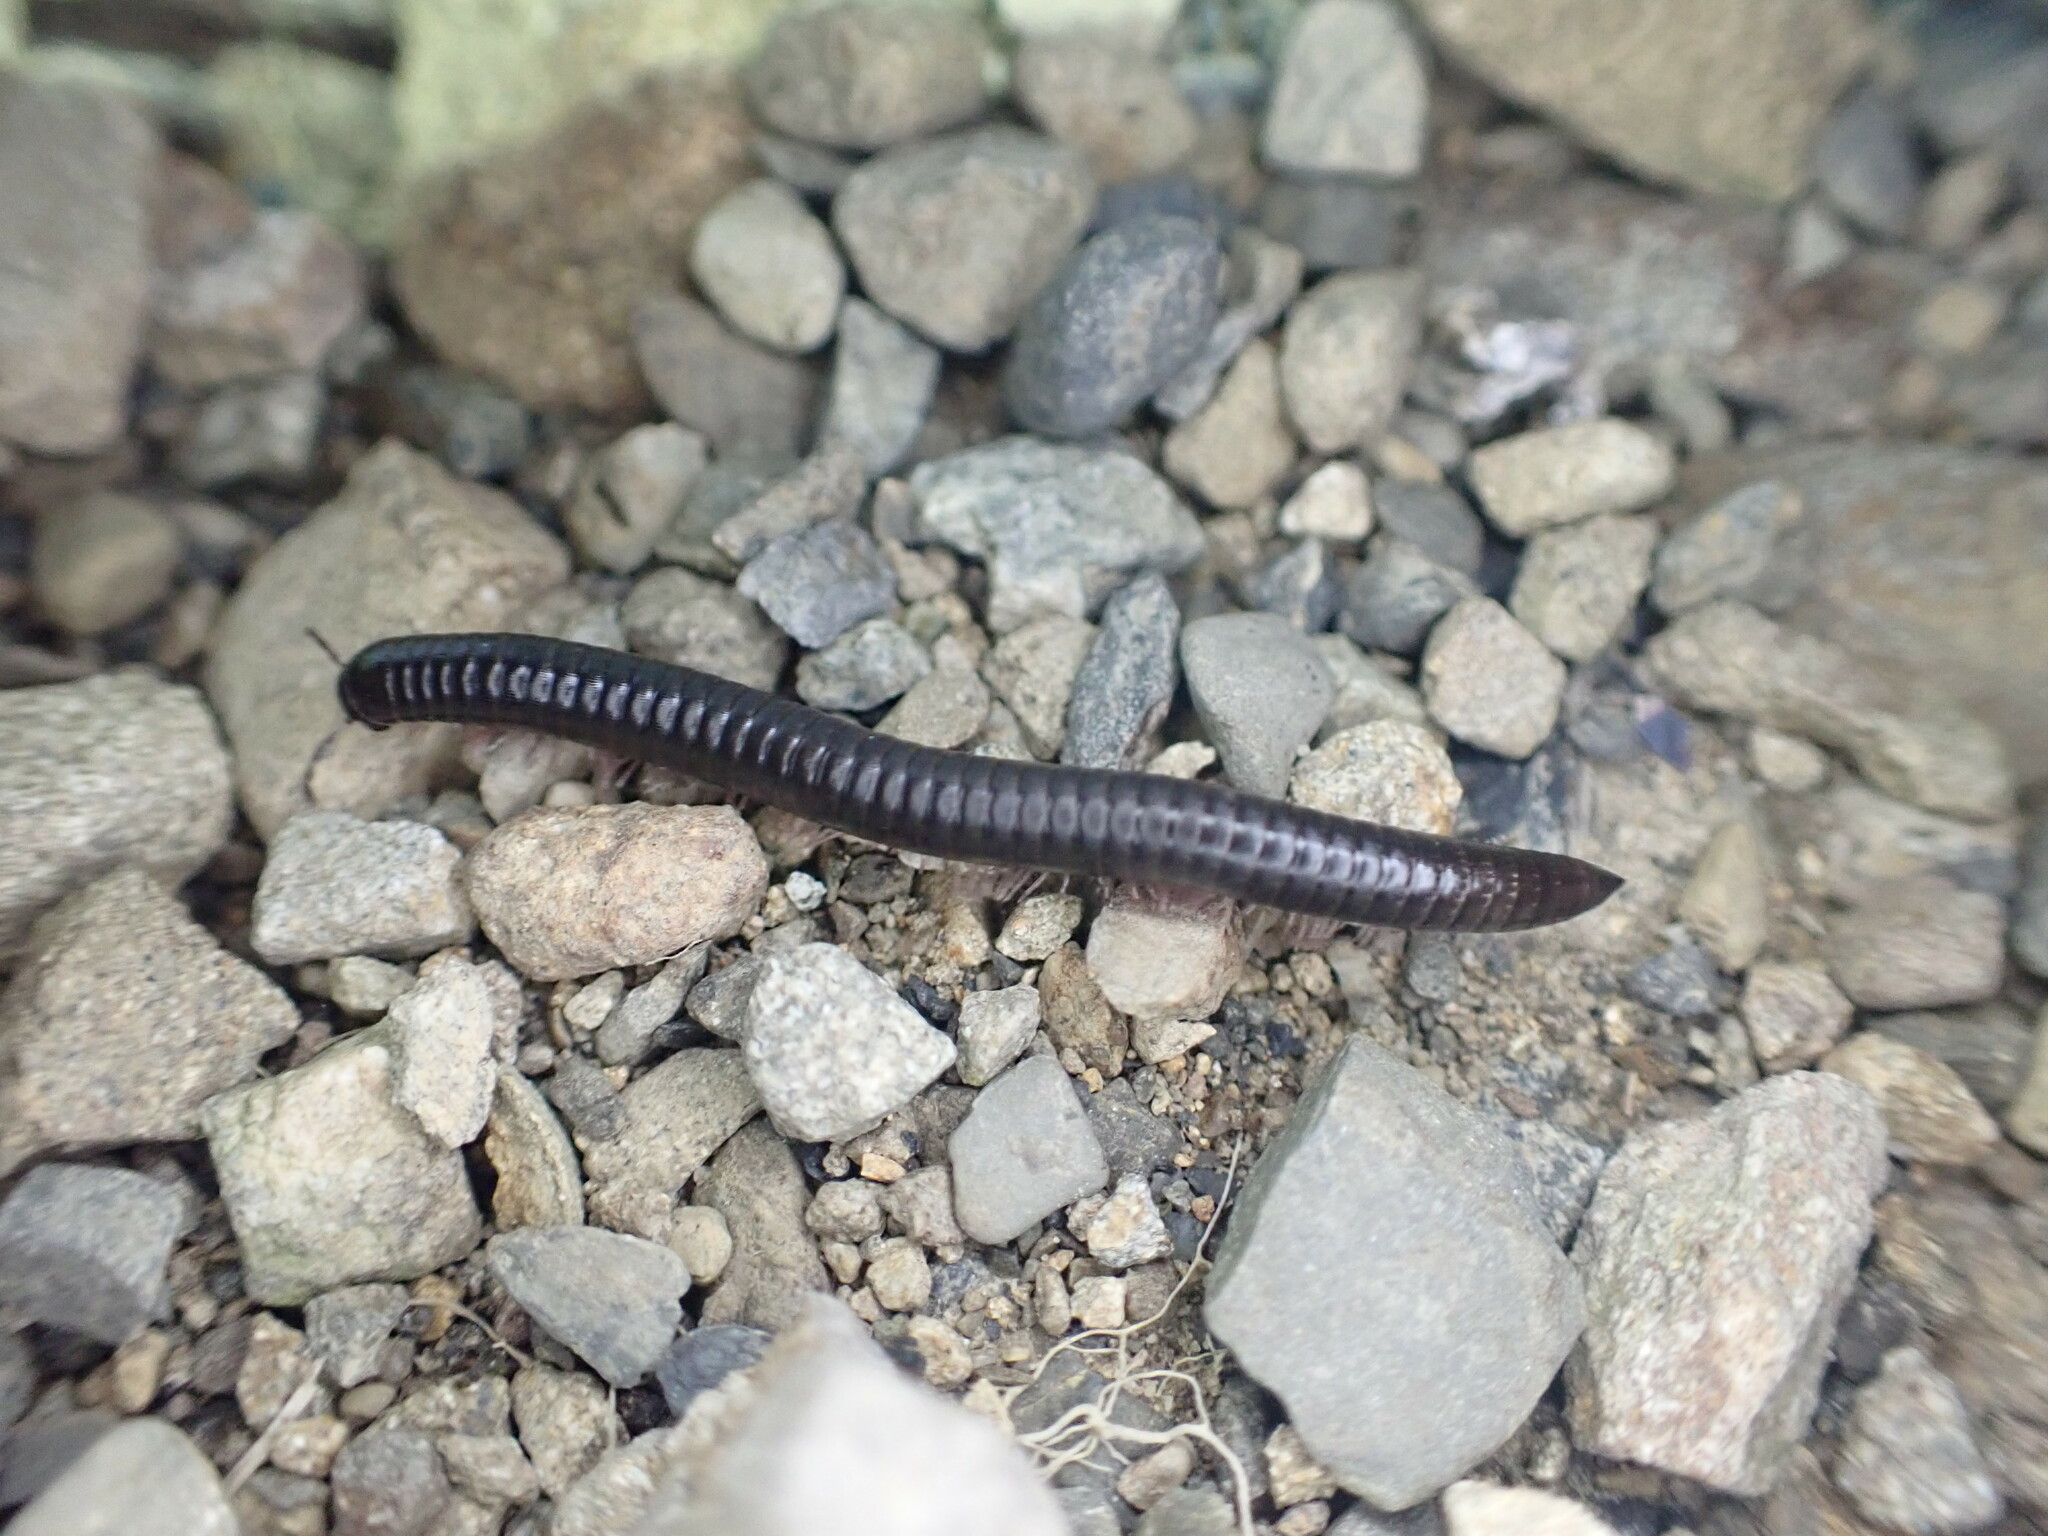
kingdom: Animalia
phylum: Arthropoda
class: Diplopoda
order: Julida
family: Julidae
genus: Ommatoiulus
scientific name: Ommatoiulus moreleti
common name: Portuguese millipede
